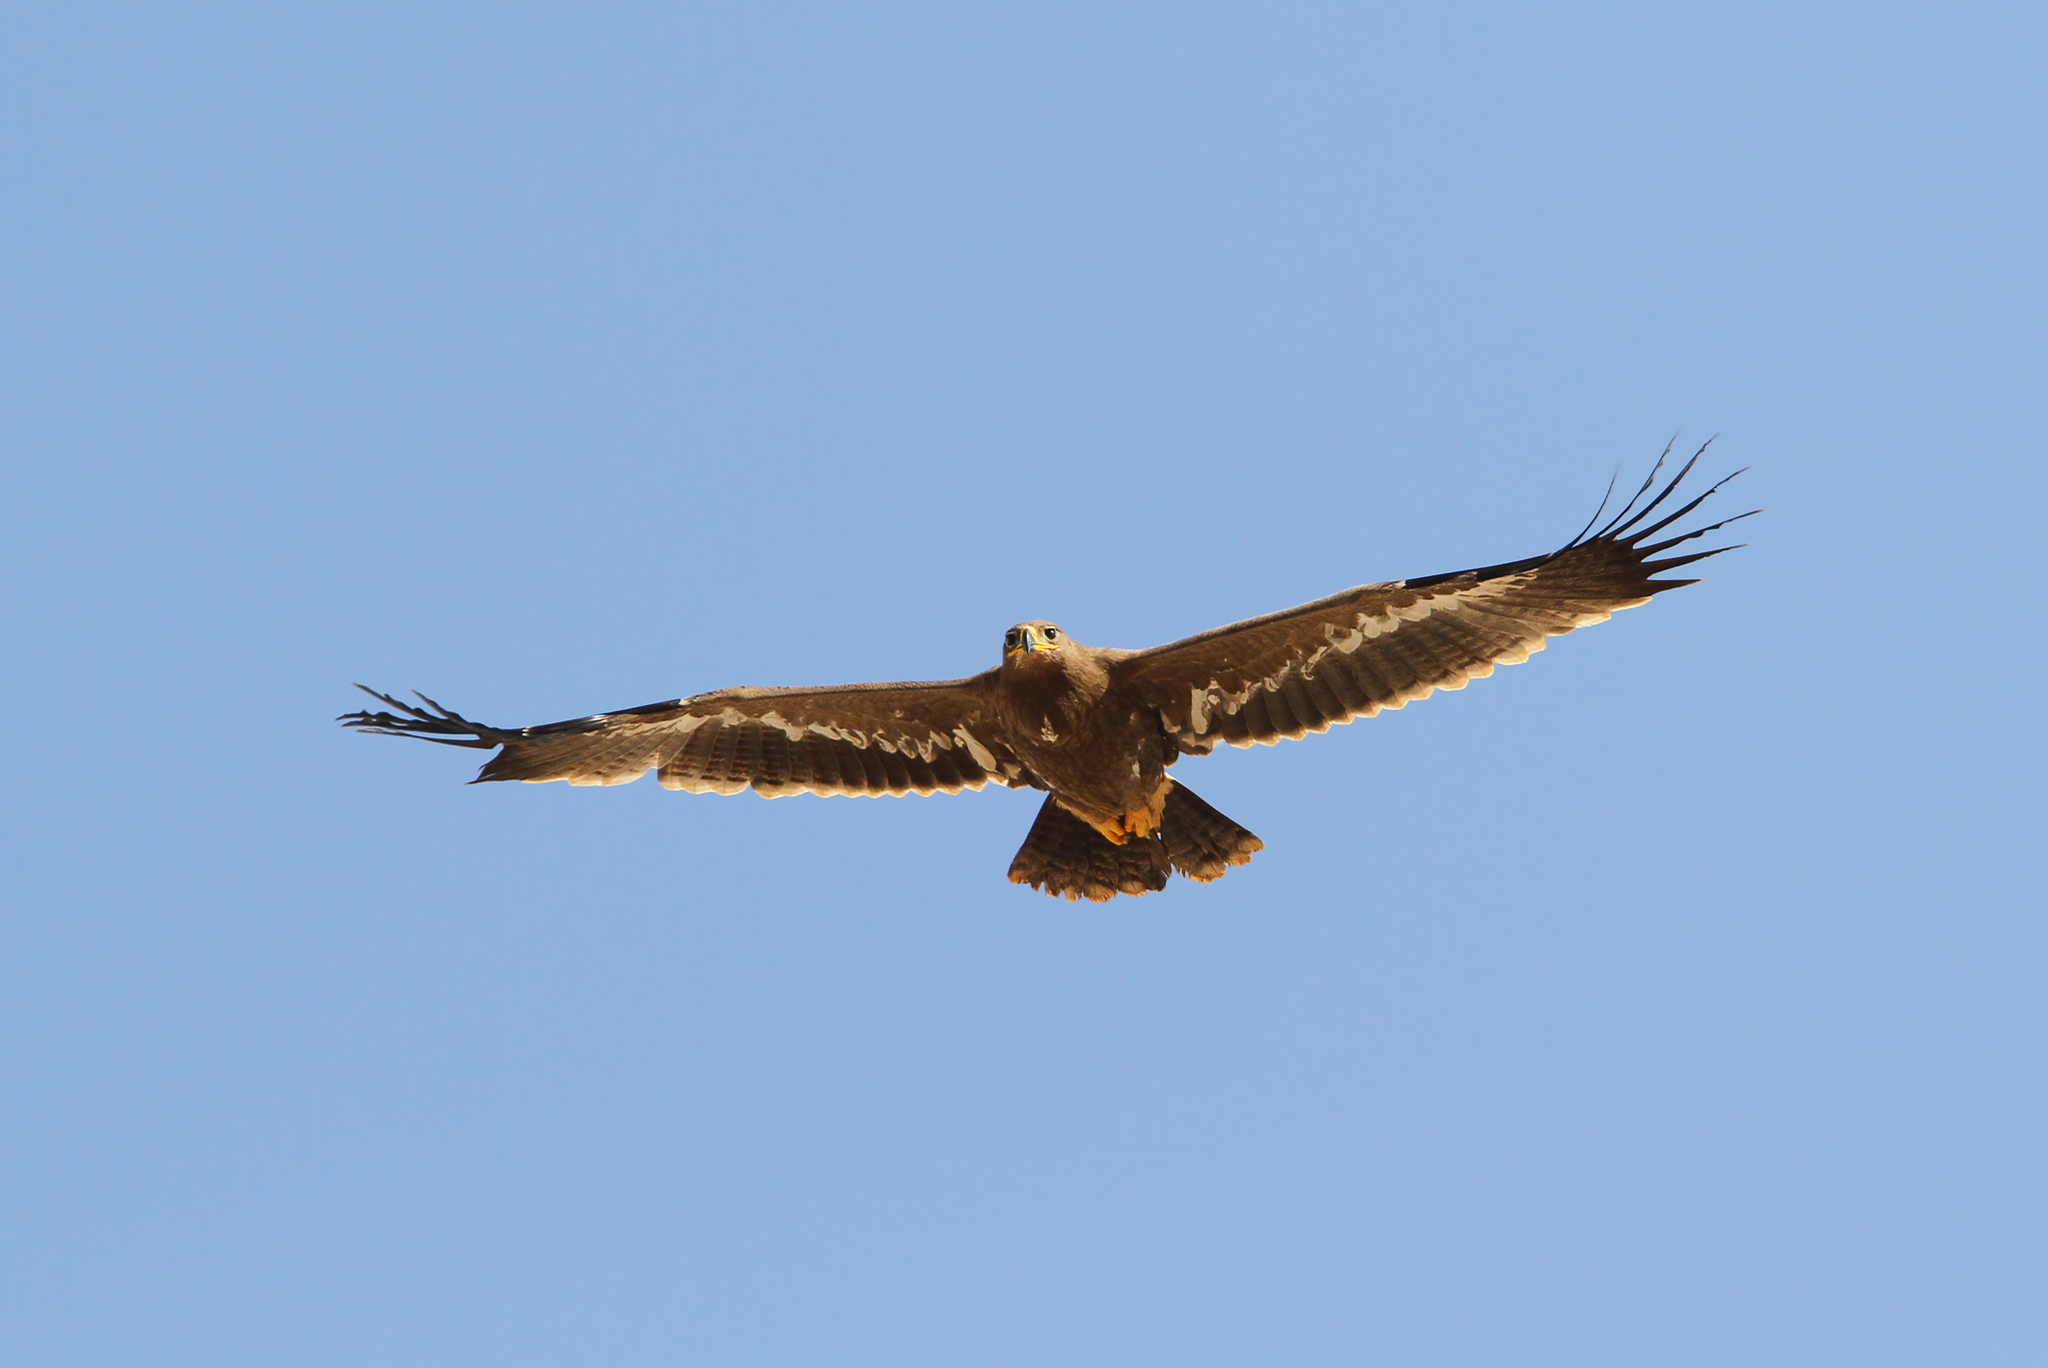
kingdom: Animalia
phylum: Chordata
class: Aves
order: Accipitriformes
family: Accipitridae
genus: Aquila
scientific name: Aquila nipalensis
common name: Steppe eagle
